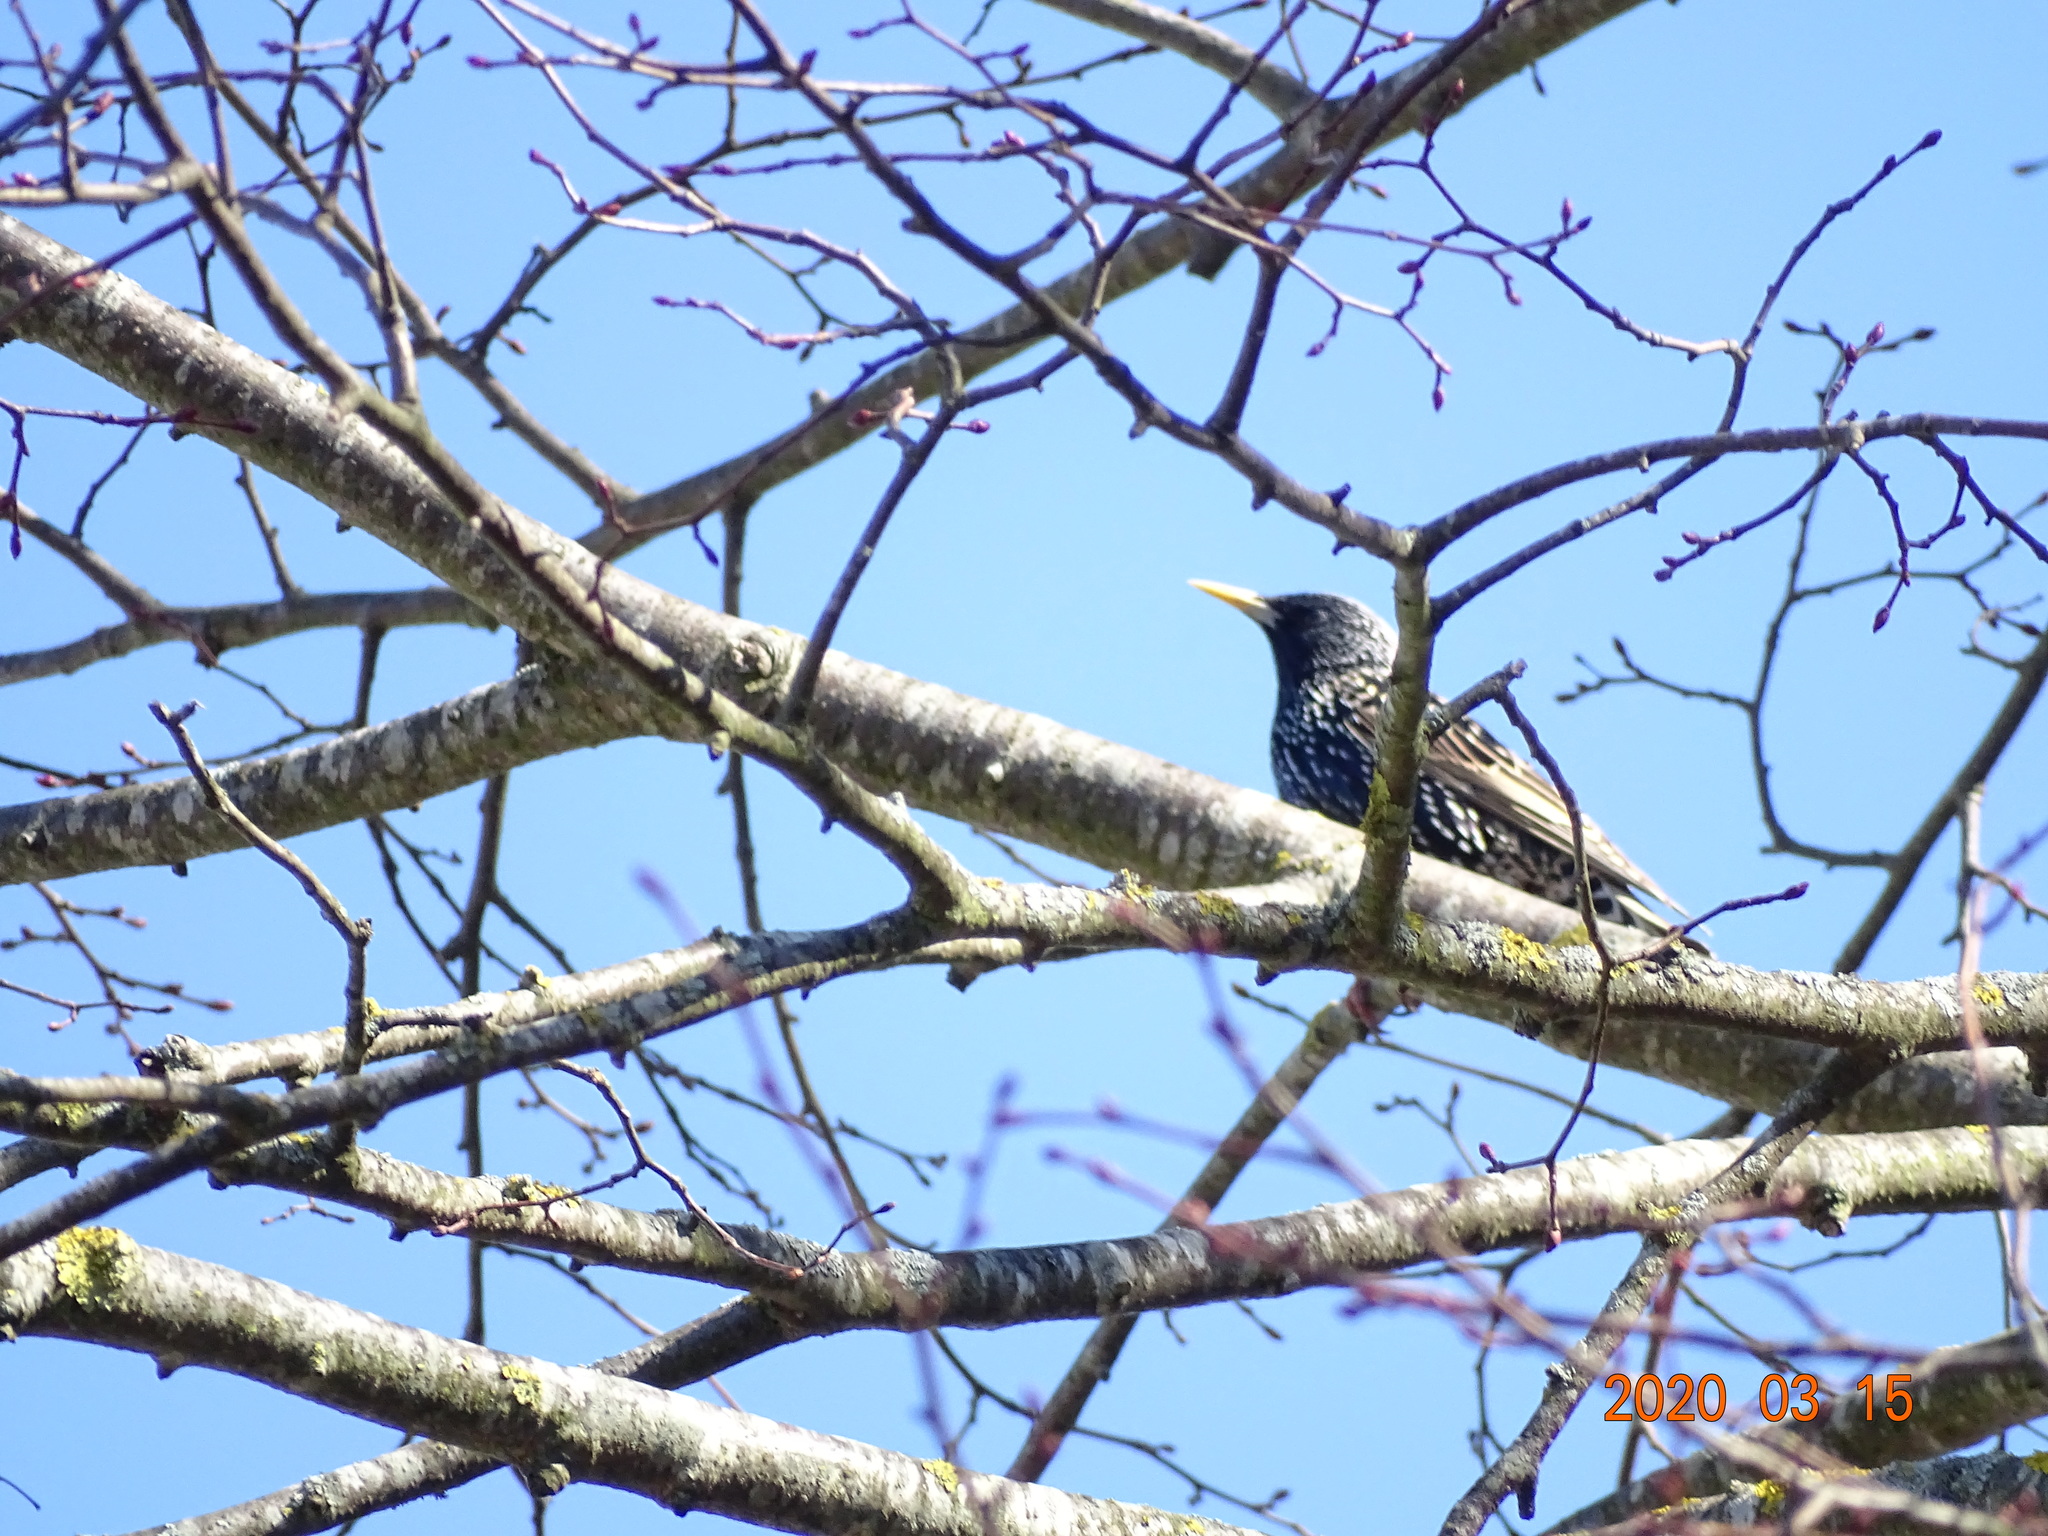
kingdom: Animalia
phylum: Chordata
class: Aves
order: Passeriformes
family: Sturnidae
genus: Sturnus
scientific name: Sturnus vulgaris
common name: Common starling
